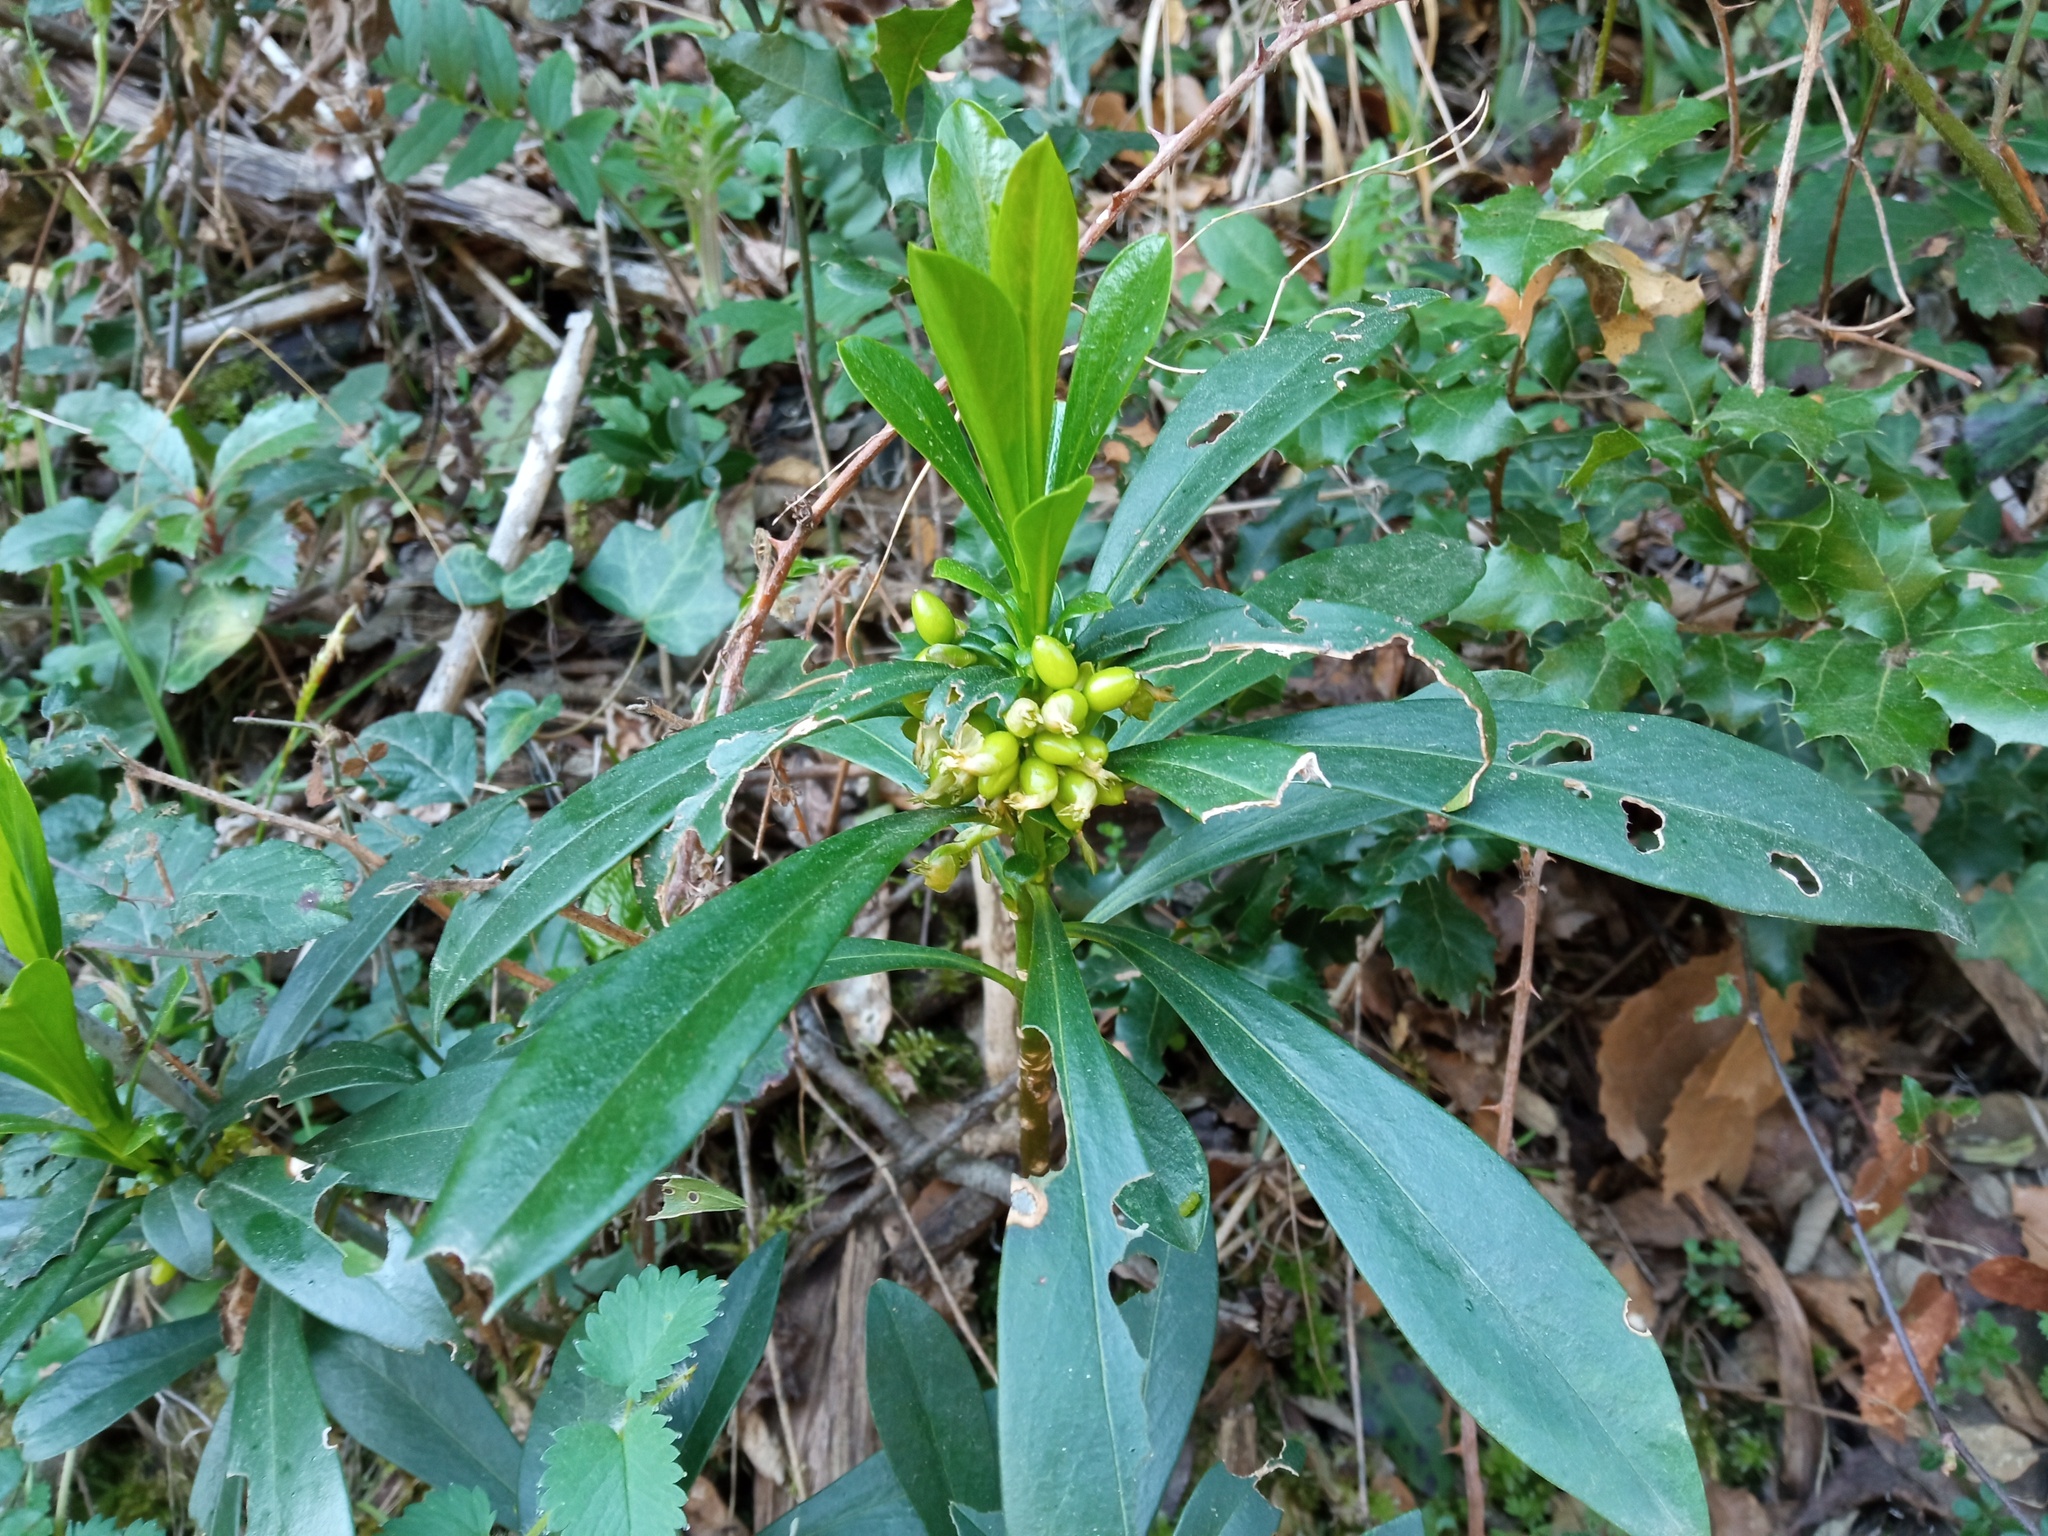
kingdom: Plantae
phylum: Tracheophyta
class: Magnoliopsida
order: Malvales
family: Thymelaeaceae
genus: Daphne
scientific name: Daphne laureola
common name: Spurge-laurel
